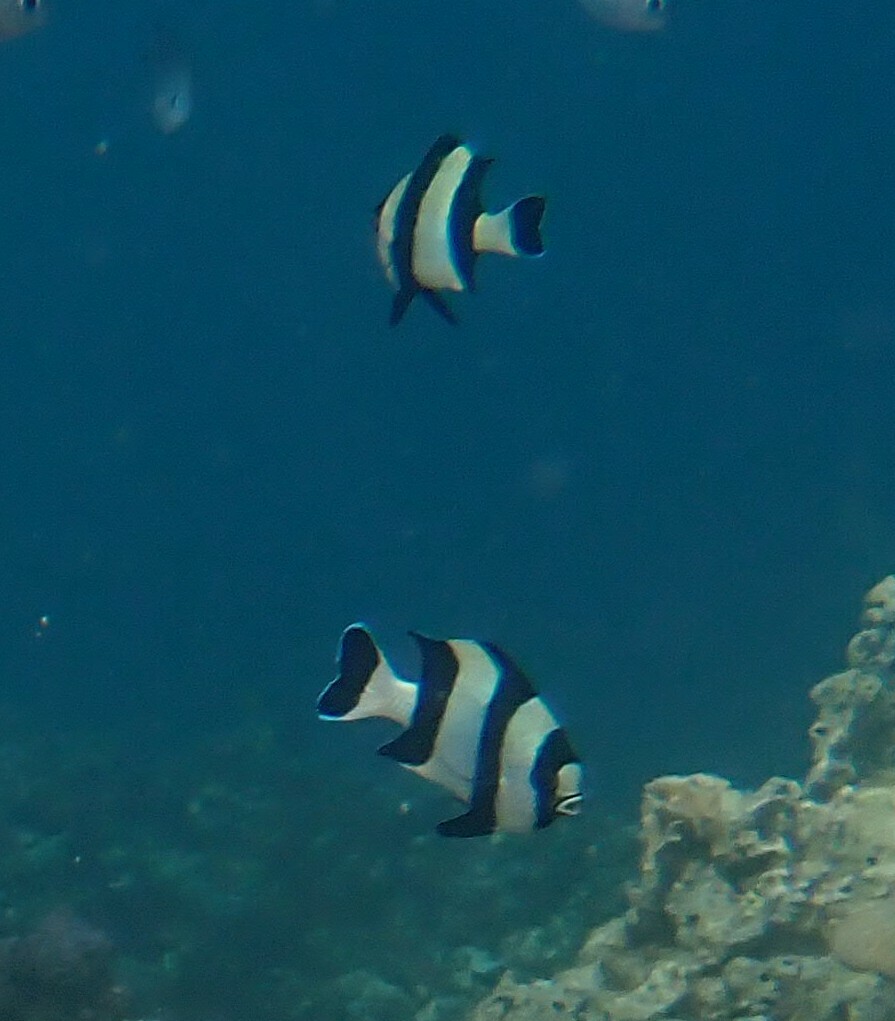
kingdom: Animalia
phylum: Chordata
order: Perciformes
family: Pomacentridae
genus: Dascyllus
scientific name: Dascyllus melanurus
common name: Black-tail dascyllus
